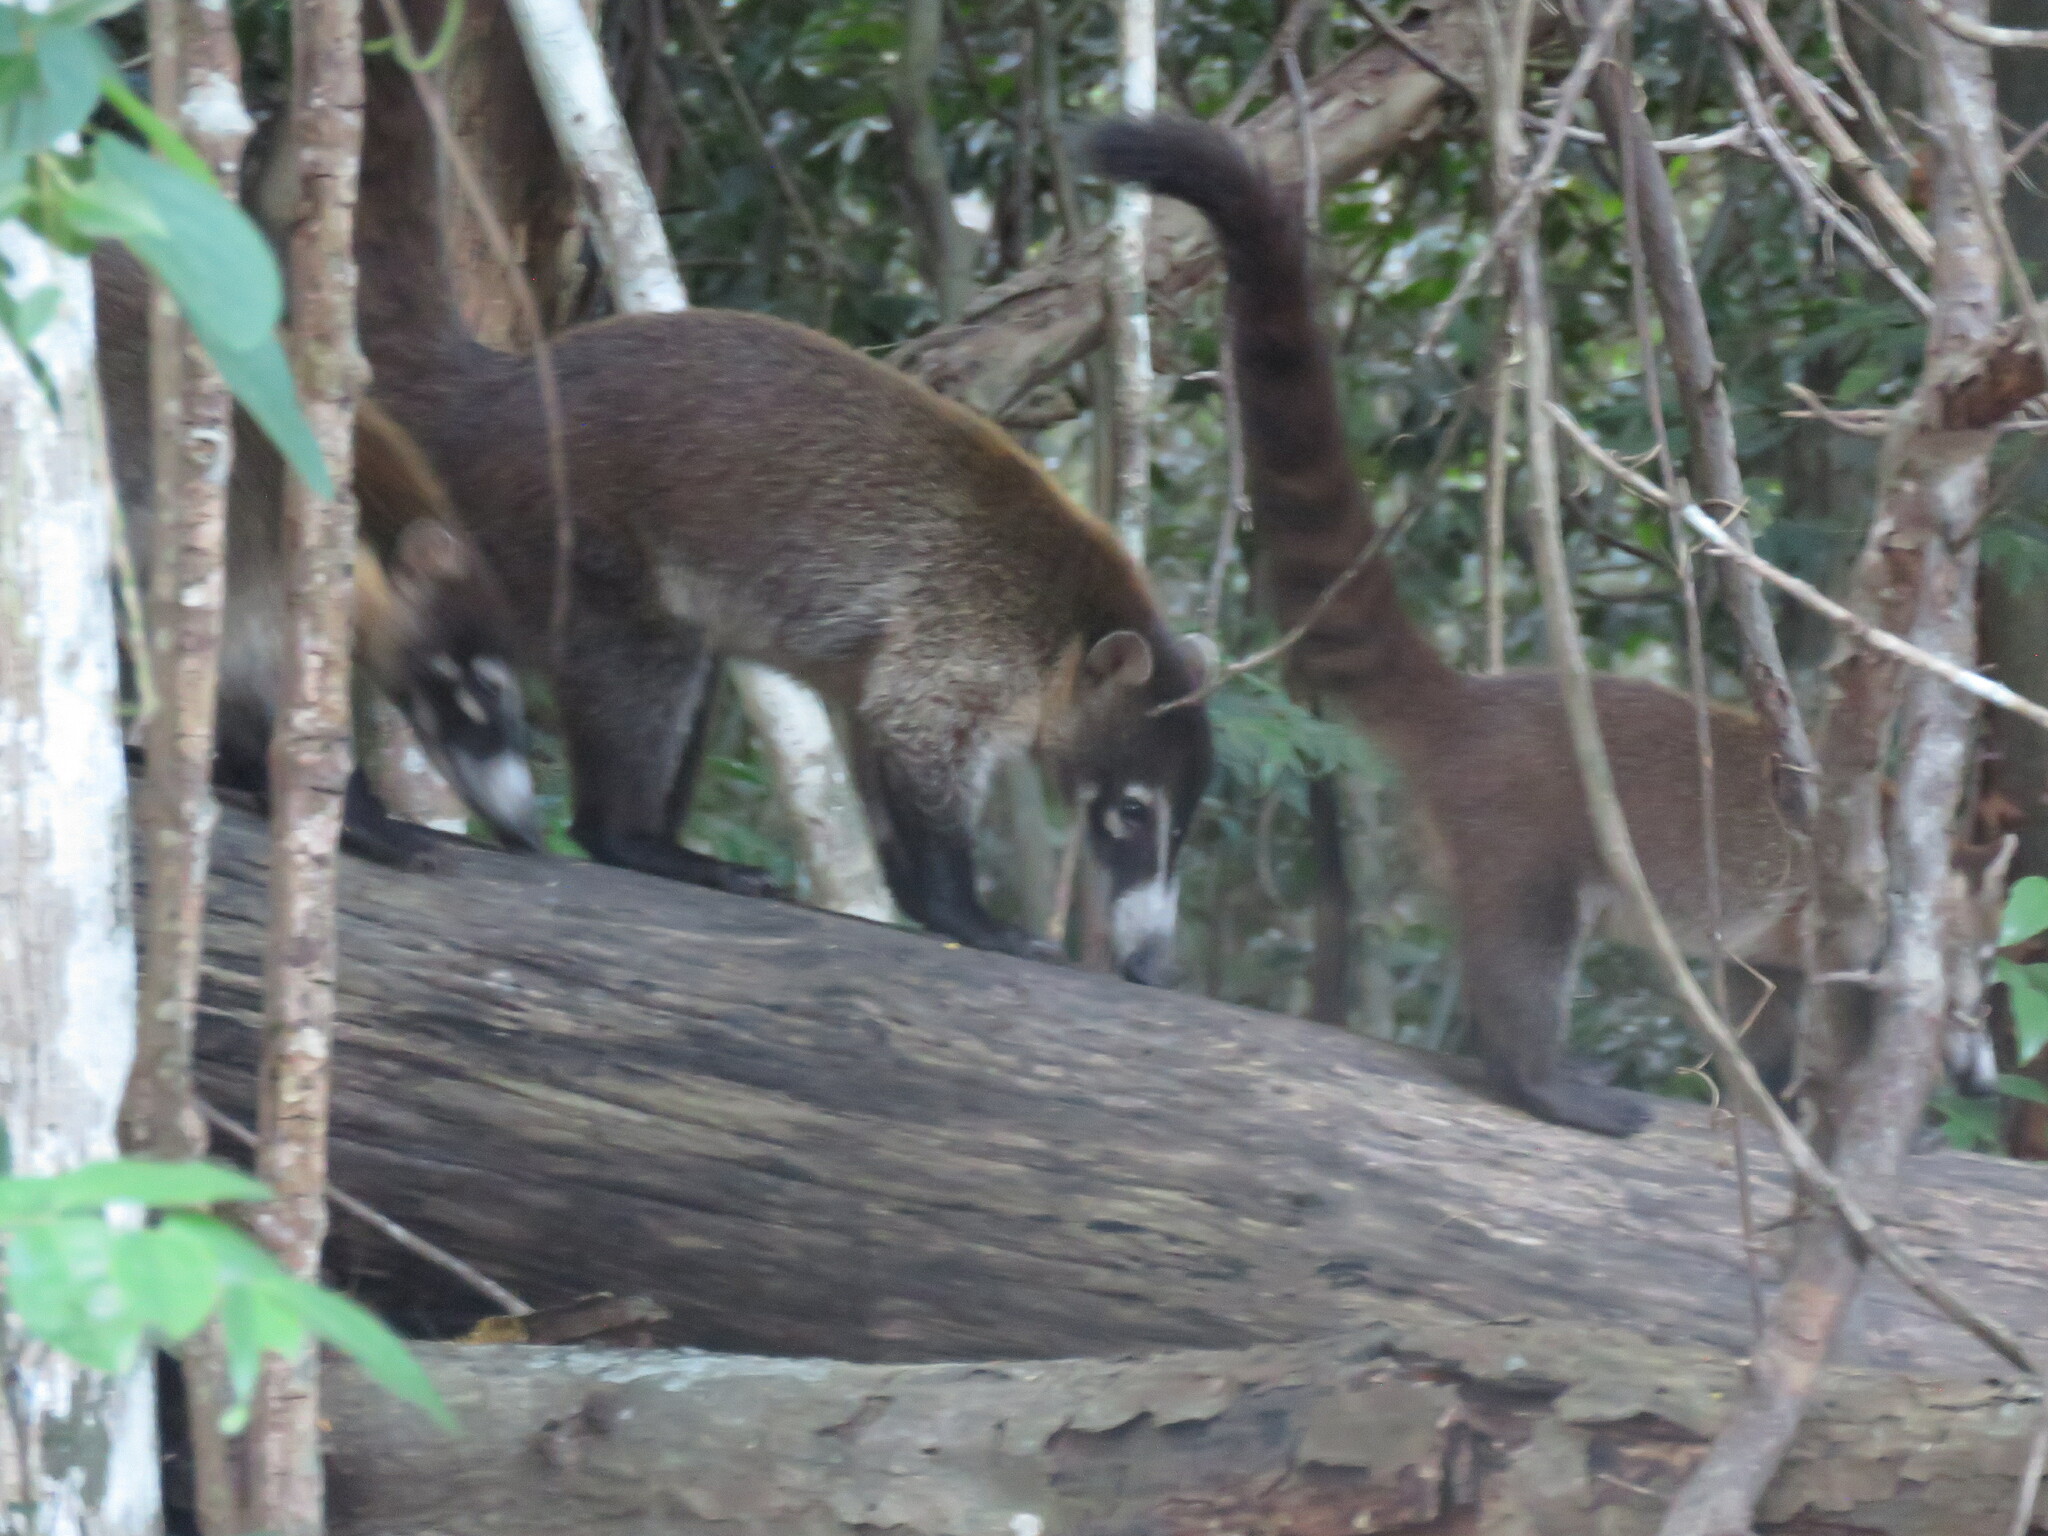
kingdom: Animalia
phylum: Chordata
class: Mammalia
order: Carnivora
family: Procyonidae
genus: Nasua
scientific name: Nasua narica
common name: White-nosed coati
